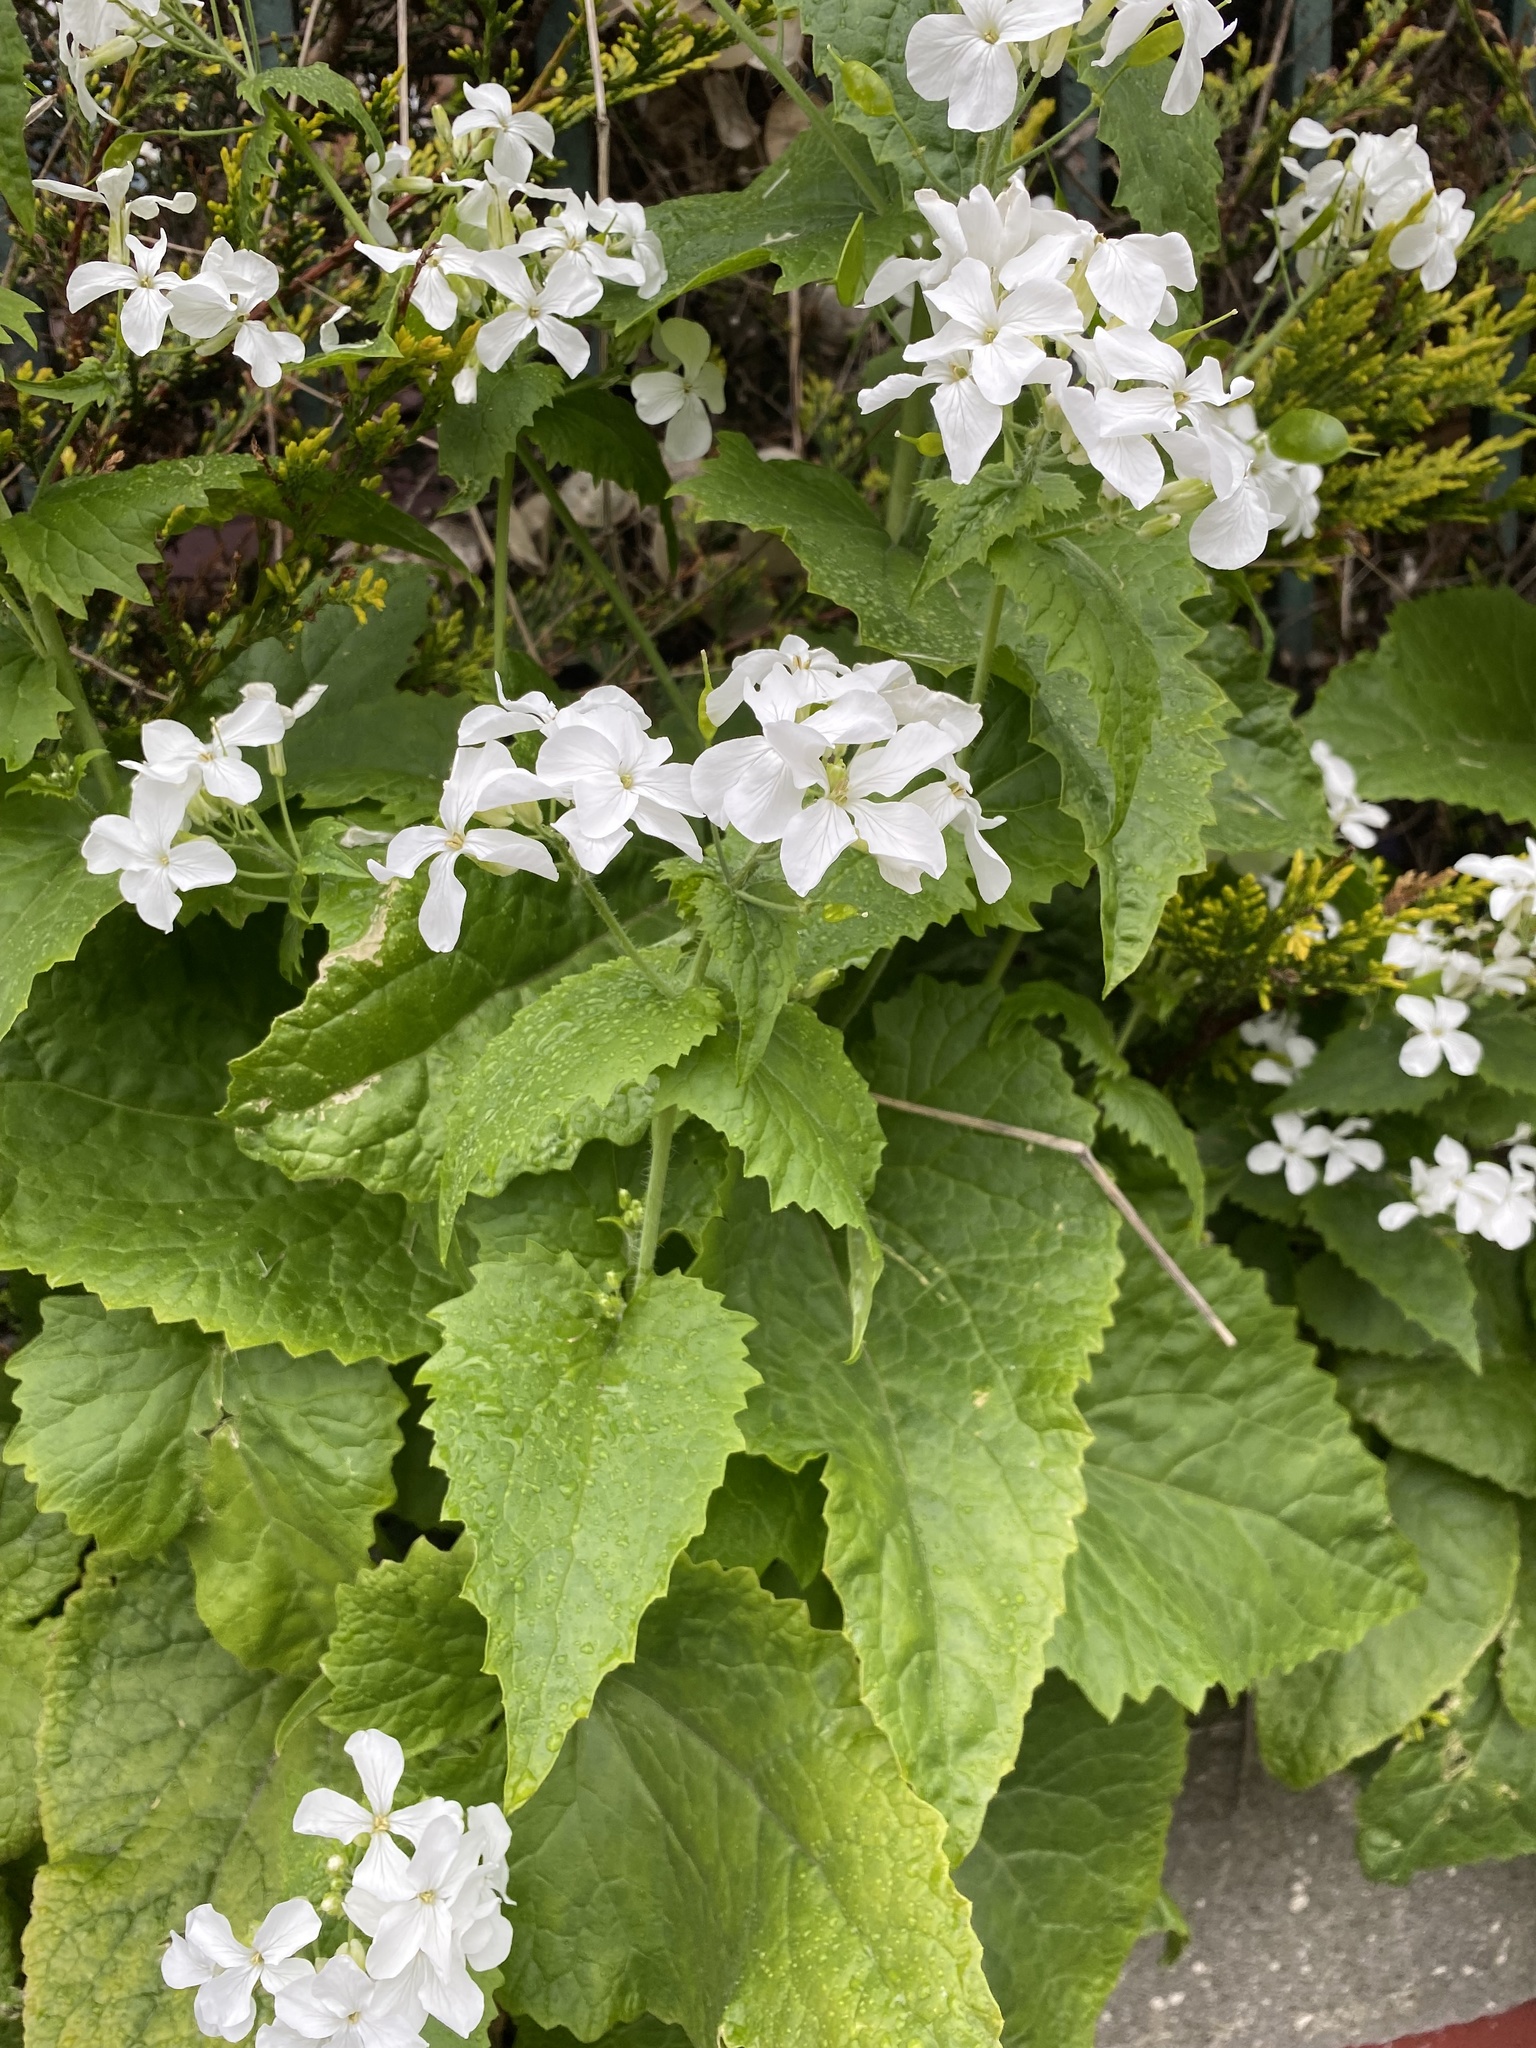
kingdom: Plantae
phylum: Tracheophyta
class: Magnoliopsida
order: Brassicales
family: Brassicaceae
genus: Lunaria
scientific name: Lunaria annua
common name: Honesty
